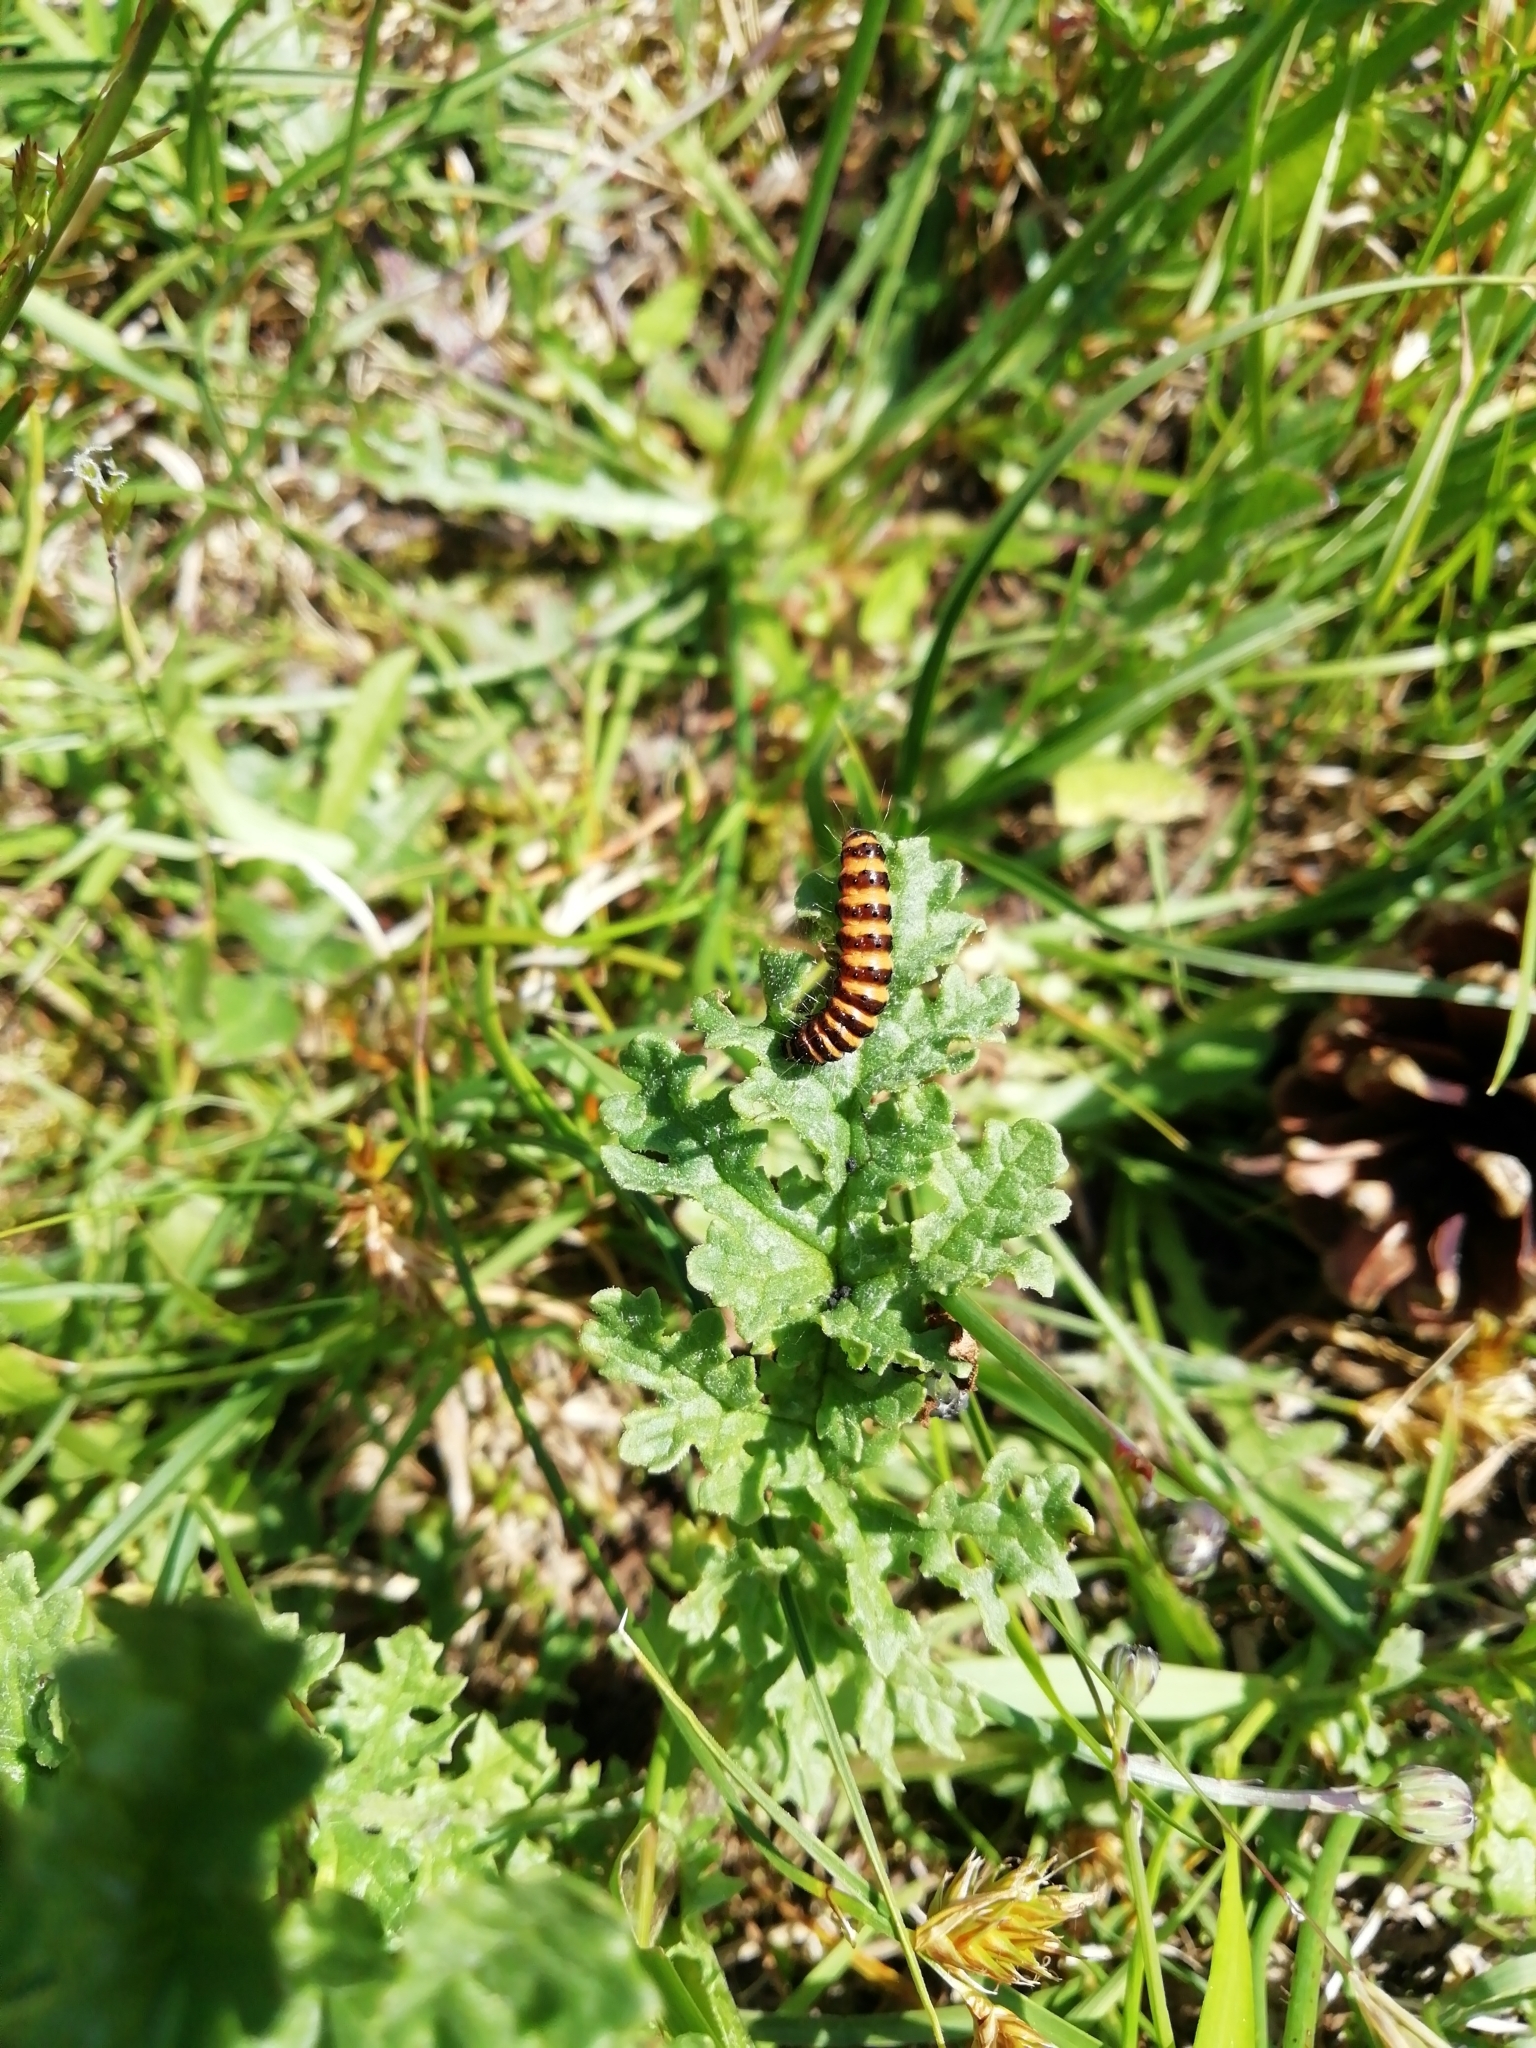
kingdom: Animalia
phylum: Arthropoda
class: Insecta
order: Lepidoptera
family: Erebidae
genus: Tyria
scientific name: Tyria jacobaeae
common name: Cinnabar
